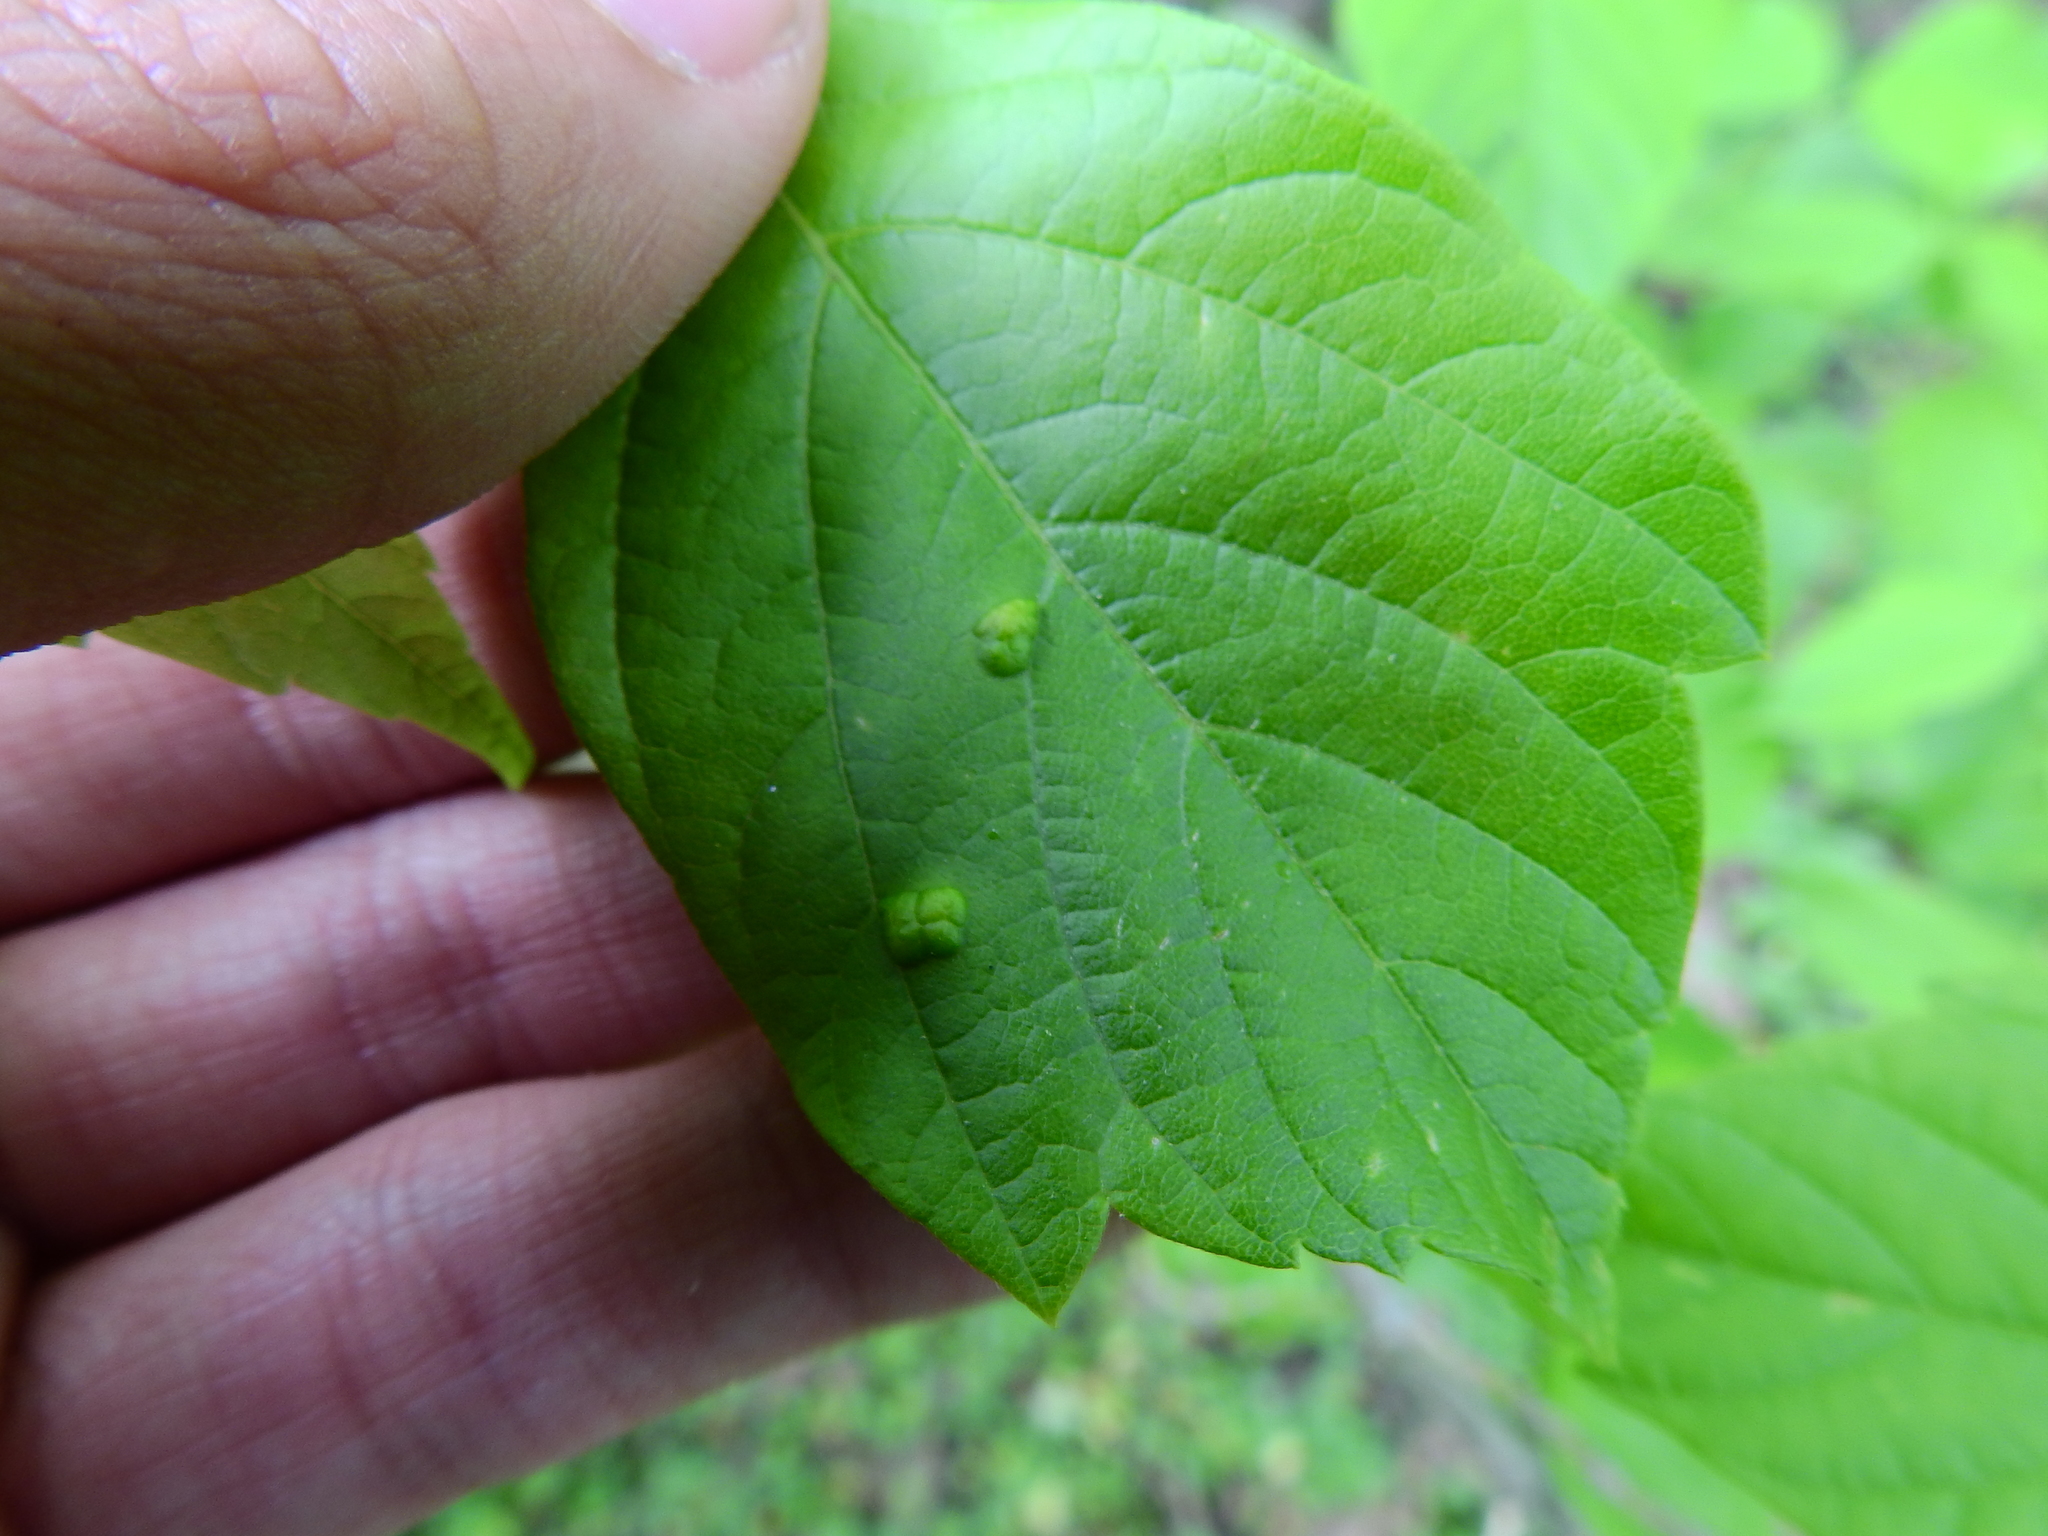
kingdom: Animalia
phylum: Arthropoda
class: Arachnida
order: Trombidiformes
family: Eriophyidae
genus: Aceria
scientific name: Aceria
